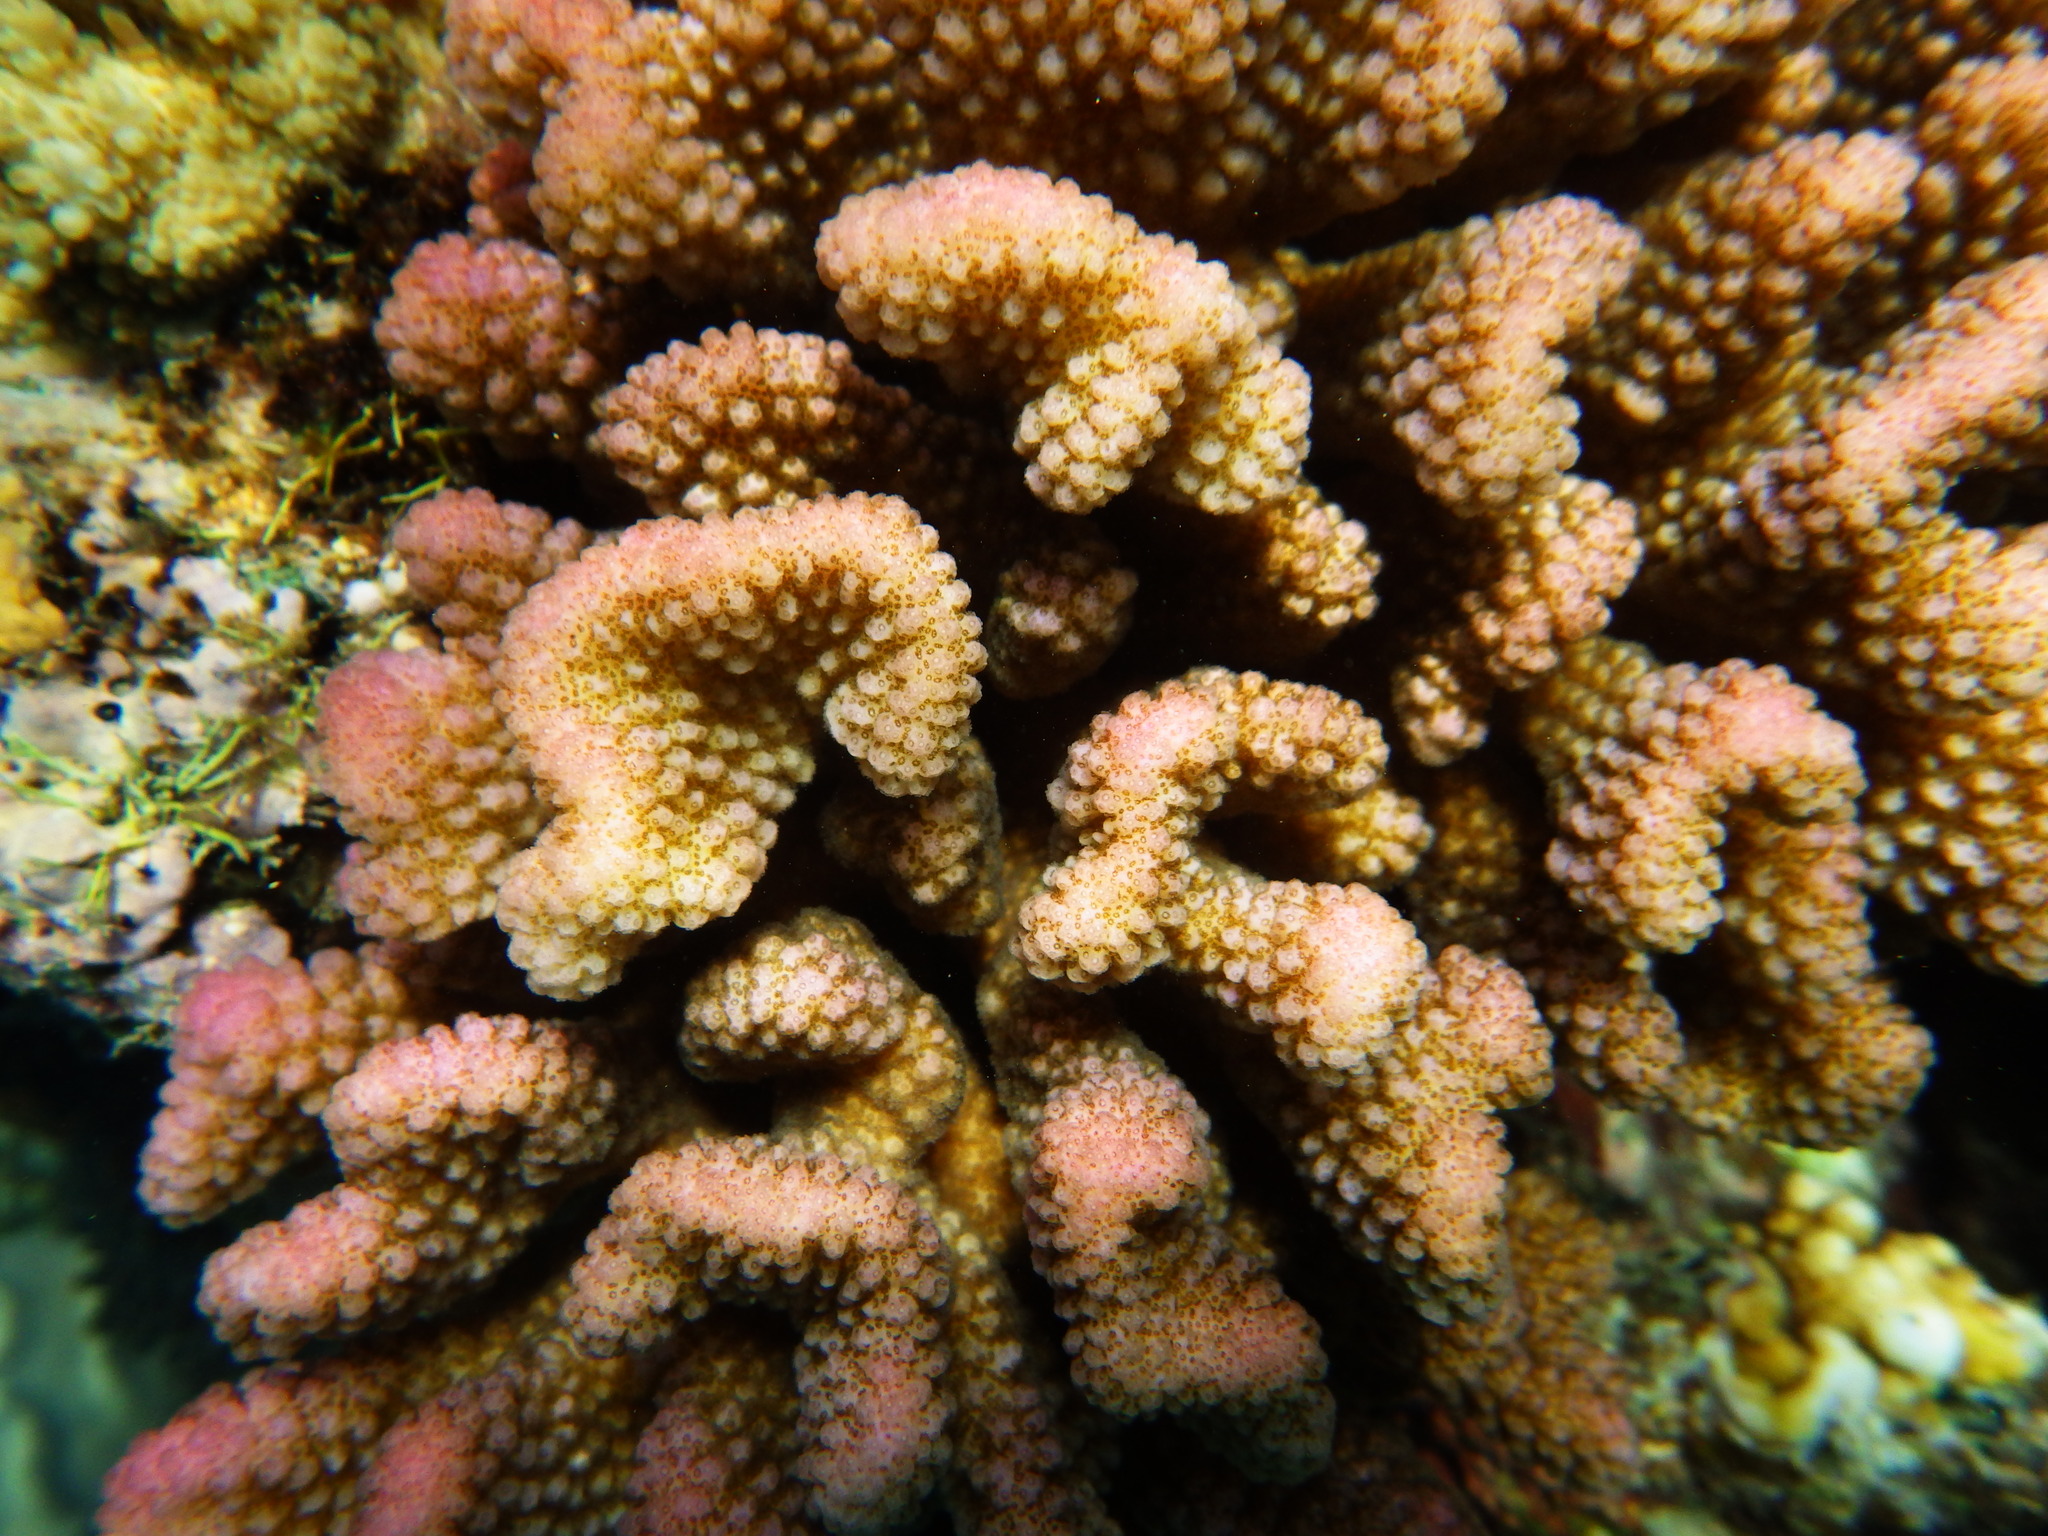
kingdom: Animalia
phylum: Cnidaria
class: Anthozoa
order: Scleractinia
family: Pocilloporidae
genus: Pocillopora
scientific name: Pocillopora meandrina
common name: Cauliflower coral
